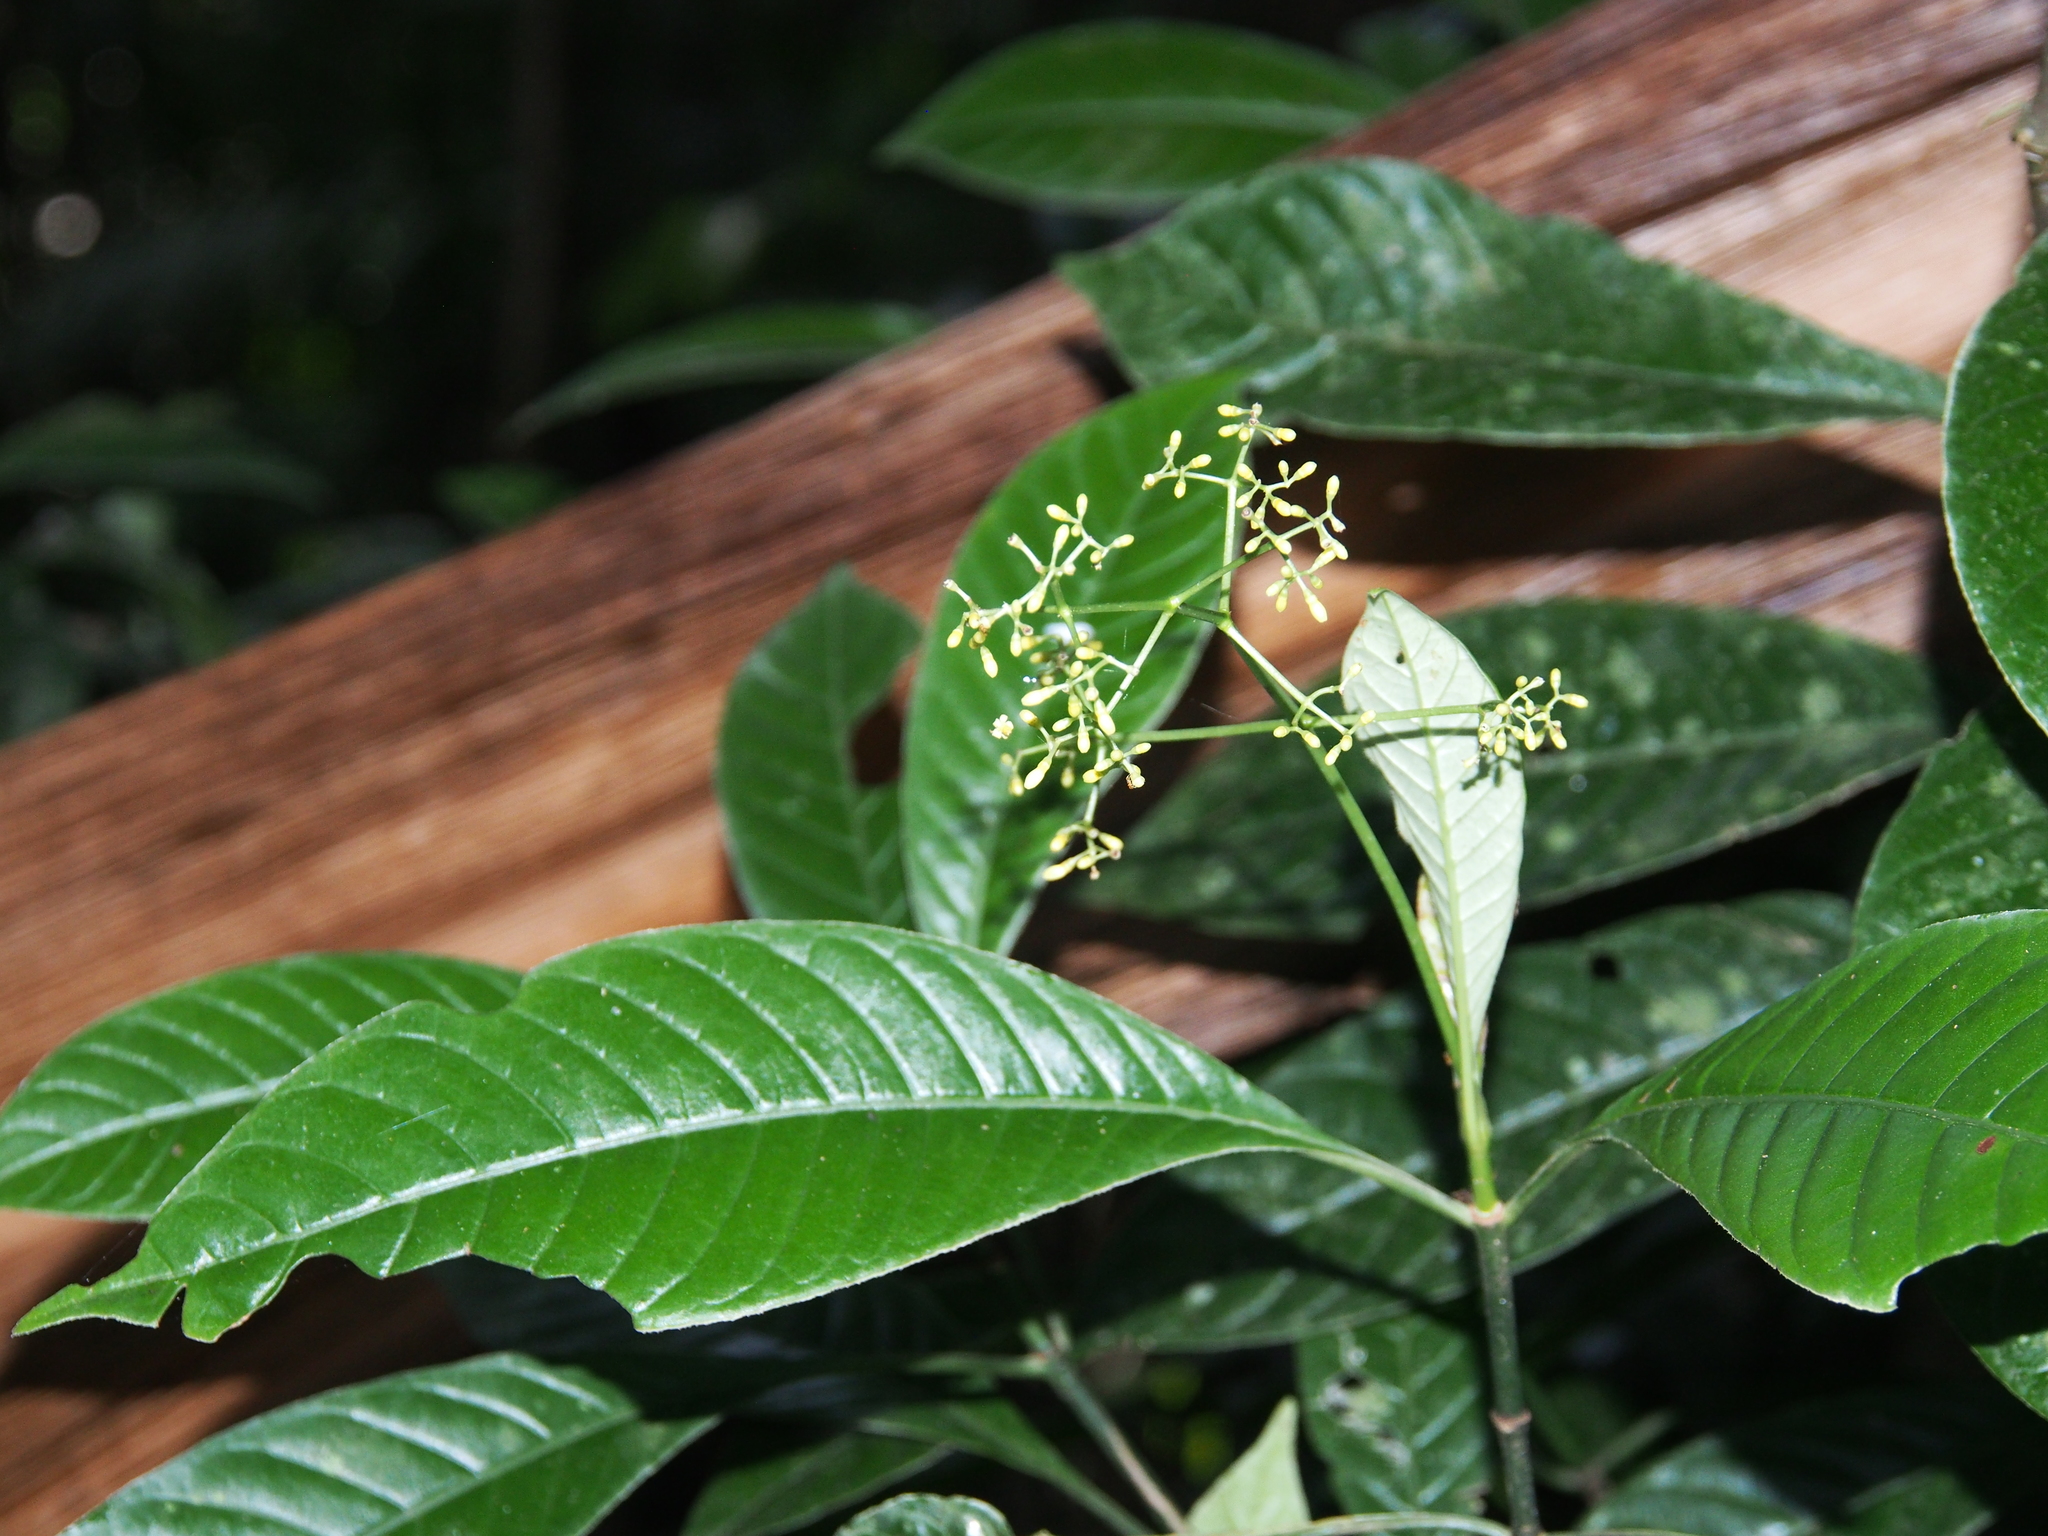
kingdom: Plantae
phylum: Tracheophyta
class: Magnoliopsida
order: Gentianales
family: Rubiaceae
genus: Psychotria
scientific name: Psychotria marginata
